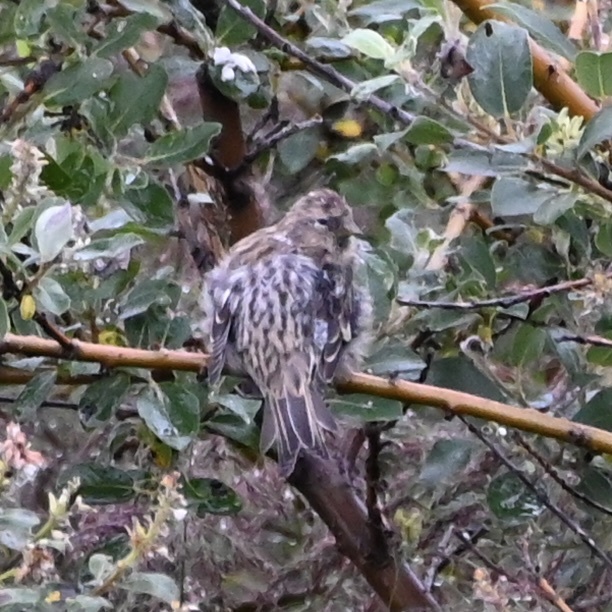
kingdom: Animalia
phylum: Chordata
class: Aves
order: Passeriformes
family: Fringillidae
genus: Acanthis
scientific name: Acanthis flammea
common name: Common redpoll
